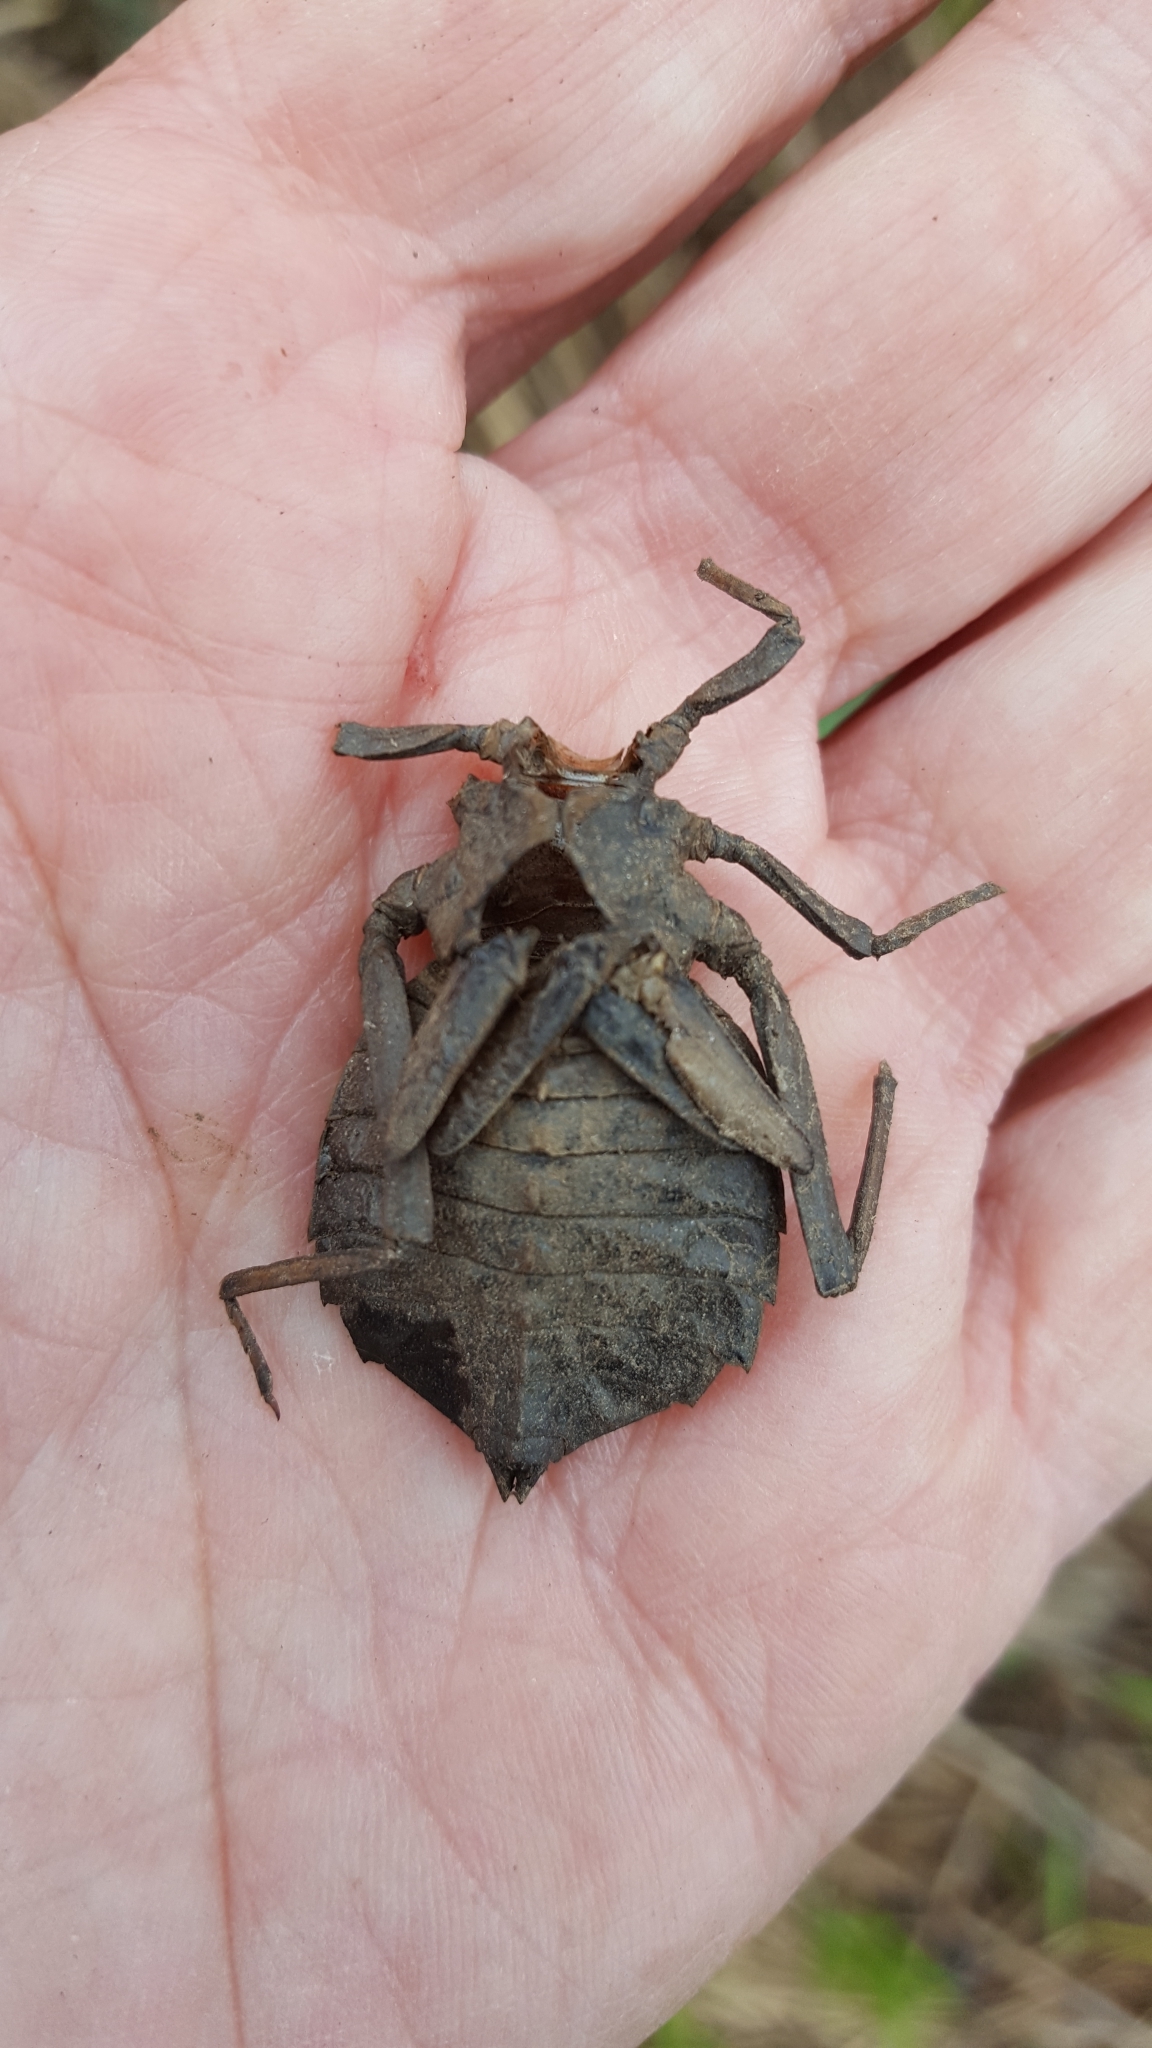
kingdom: Animalia
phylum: Arthropoda
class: Insecta
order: Odonata
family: Gomphidae
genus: Hagenius
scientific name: Hagenius brevistylus
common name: Dragonhunter
